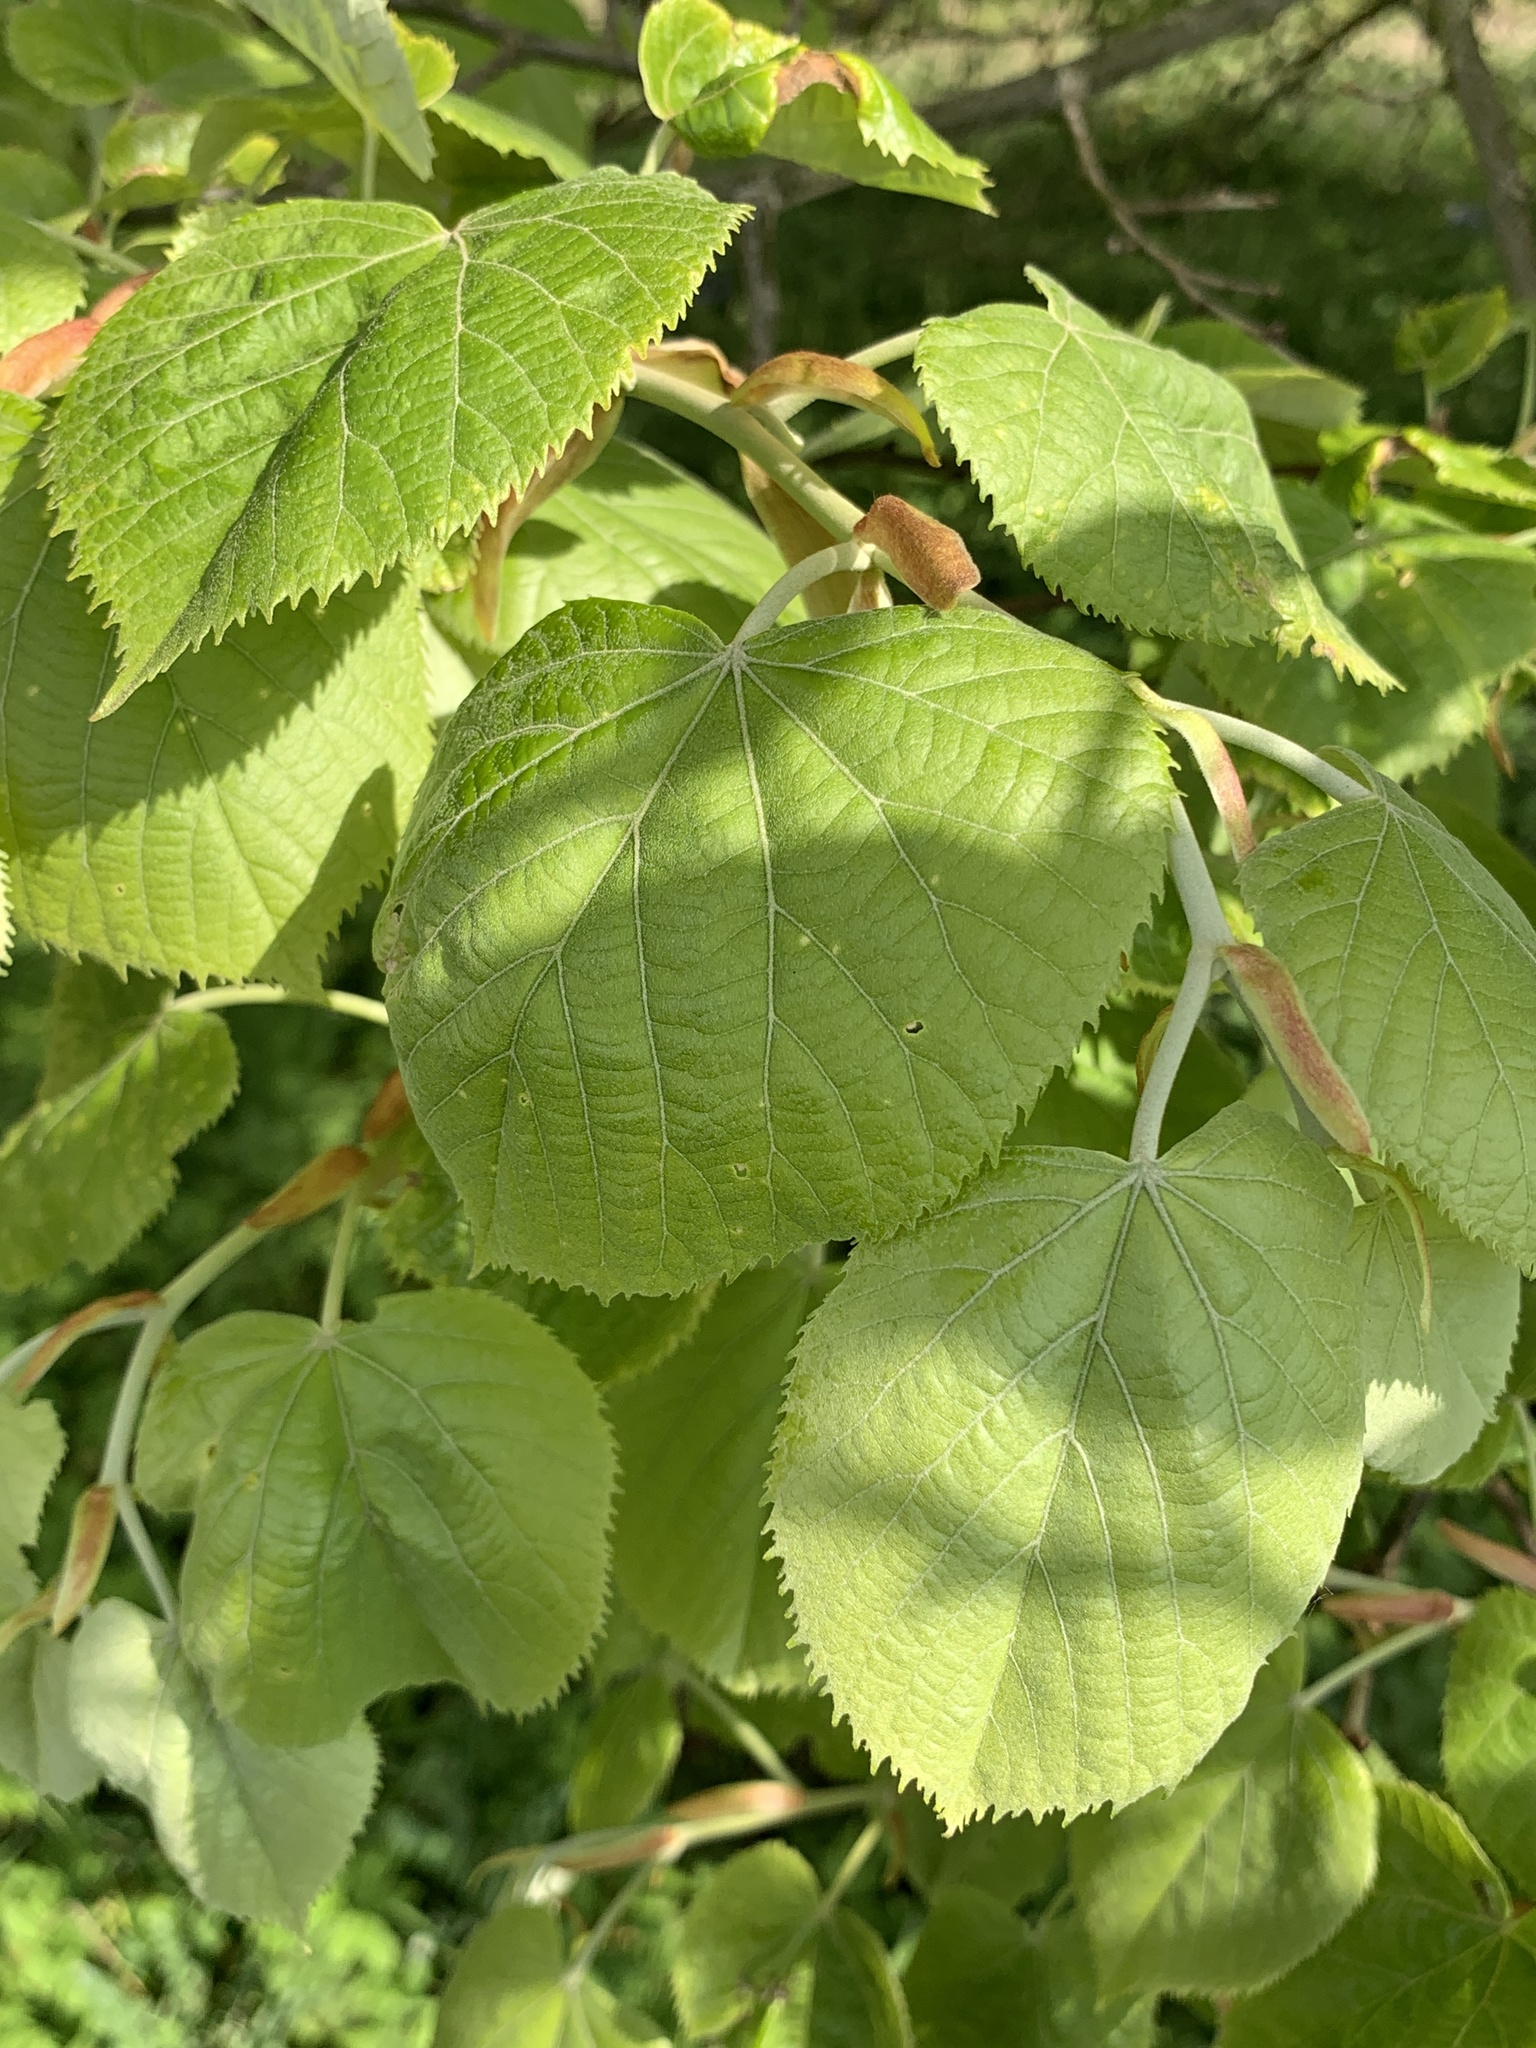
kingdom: Plantae
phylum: Tracheophyta
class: Magnoliopsida
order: Malvales
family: Malvaceae
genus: Tilia
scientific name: Tilia tomentosa
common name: Silver lime
